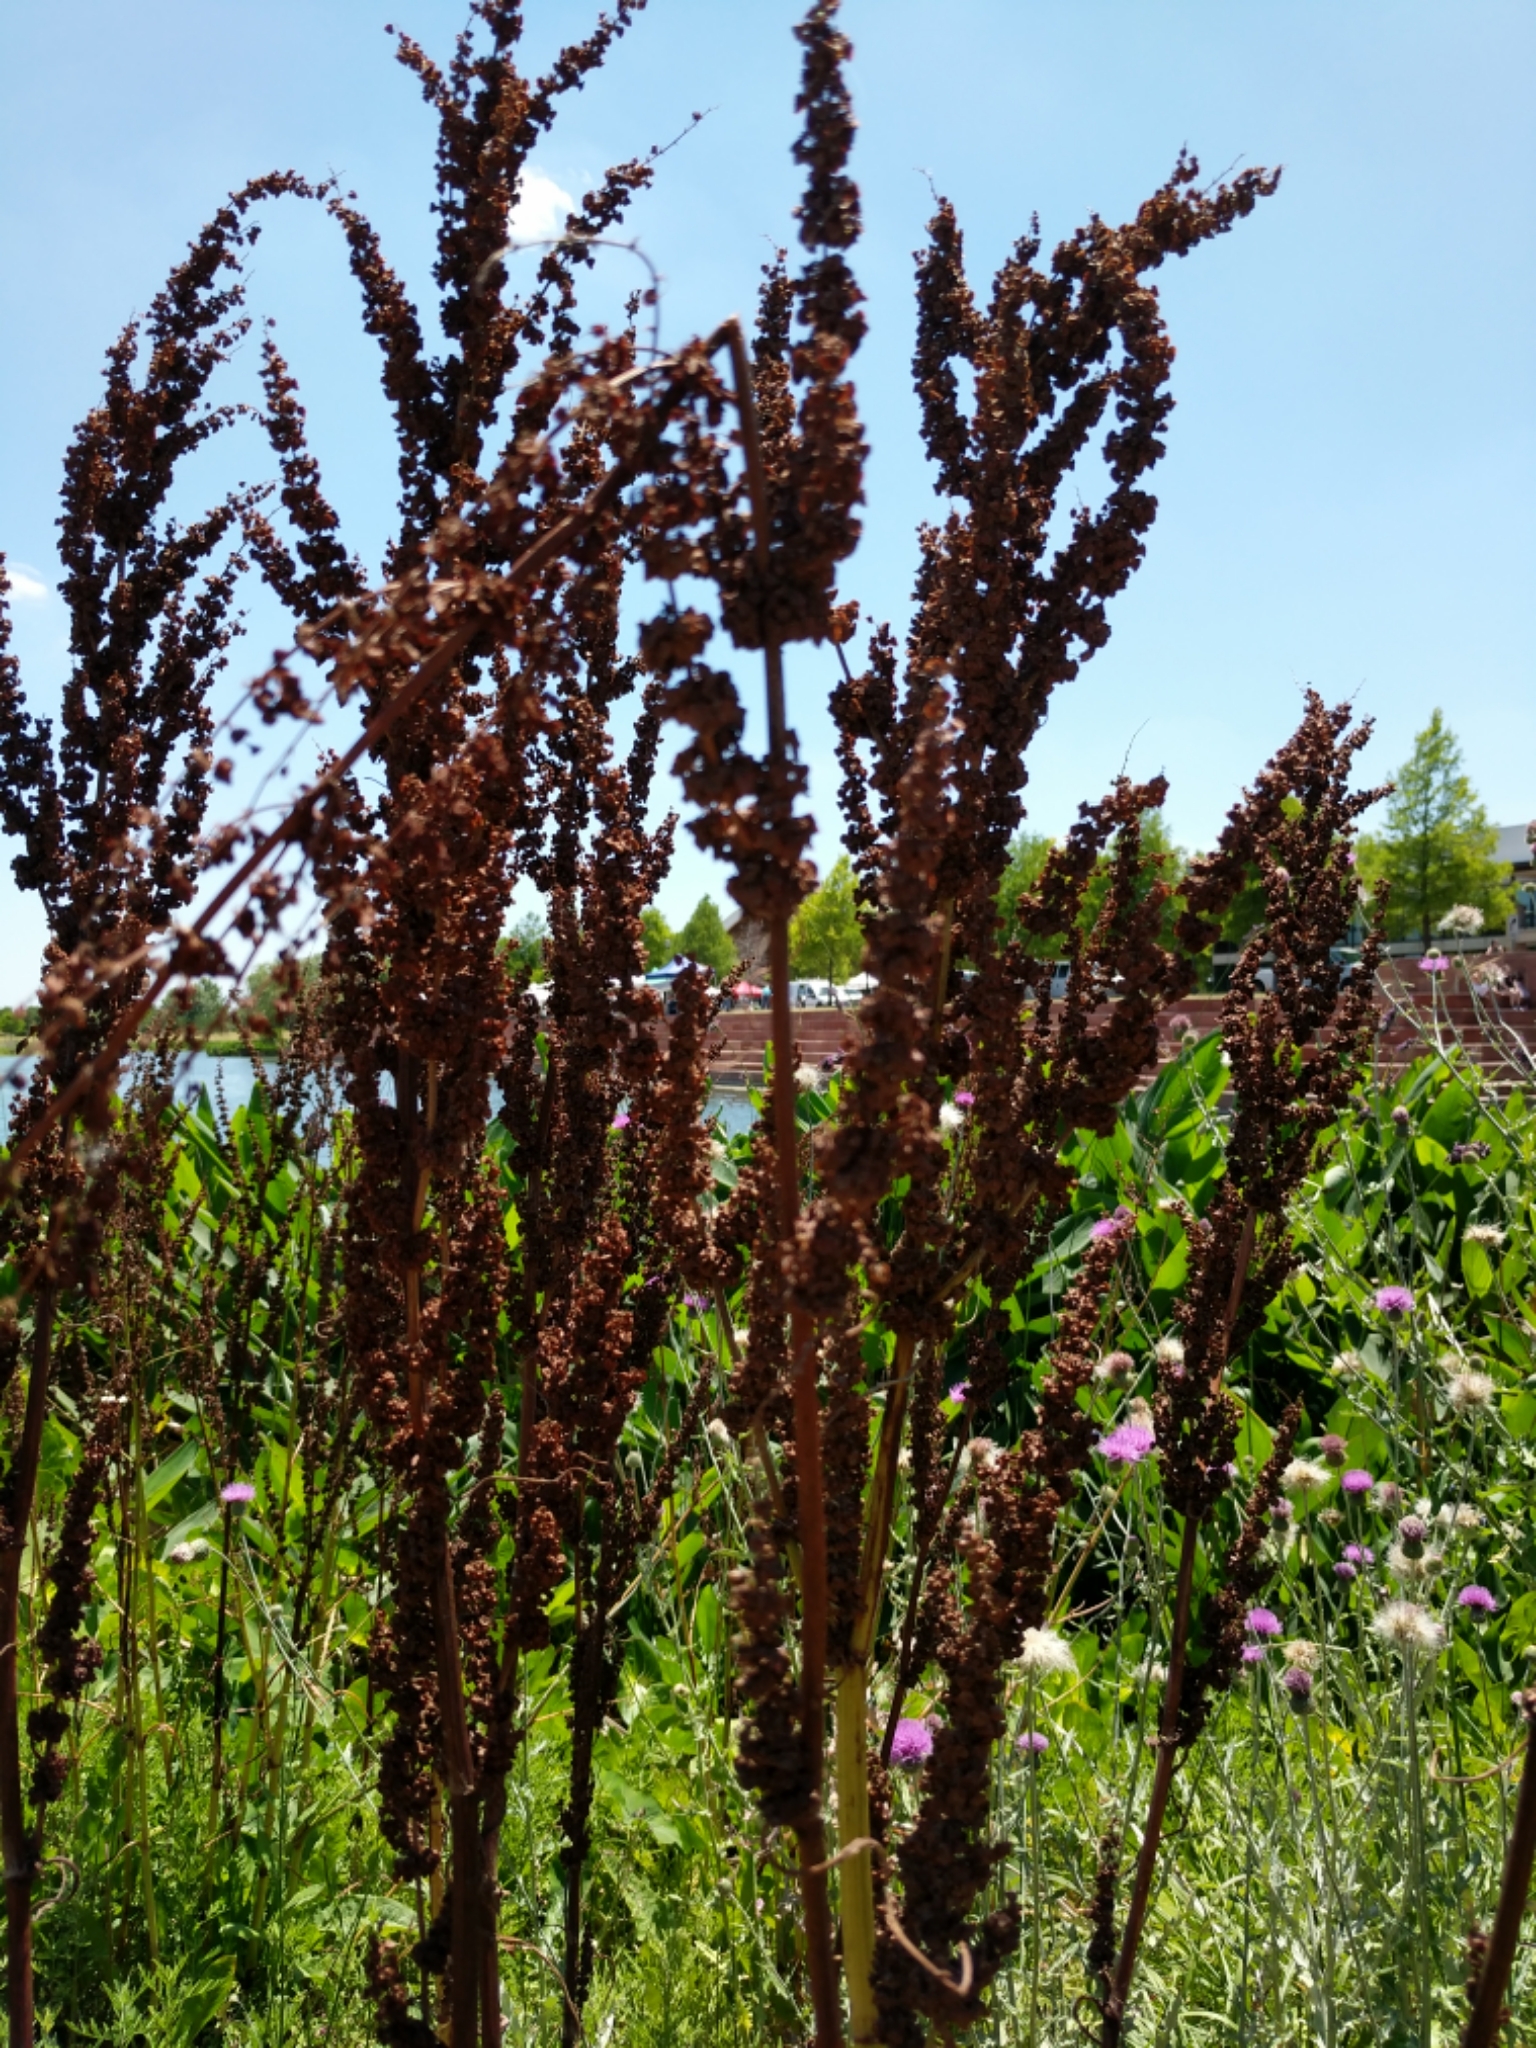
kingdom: Plantae
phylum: Tracheophyta
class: Magnoliopsida
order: Caryophyllales
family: Polygonaceae
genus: Rumex
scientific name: Rumex crispus
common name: Curled dock
